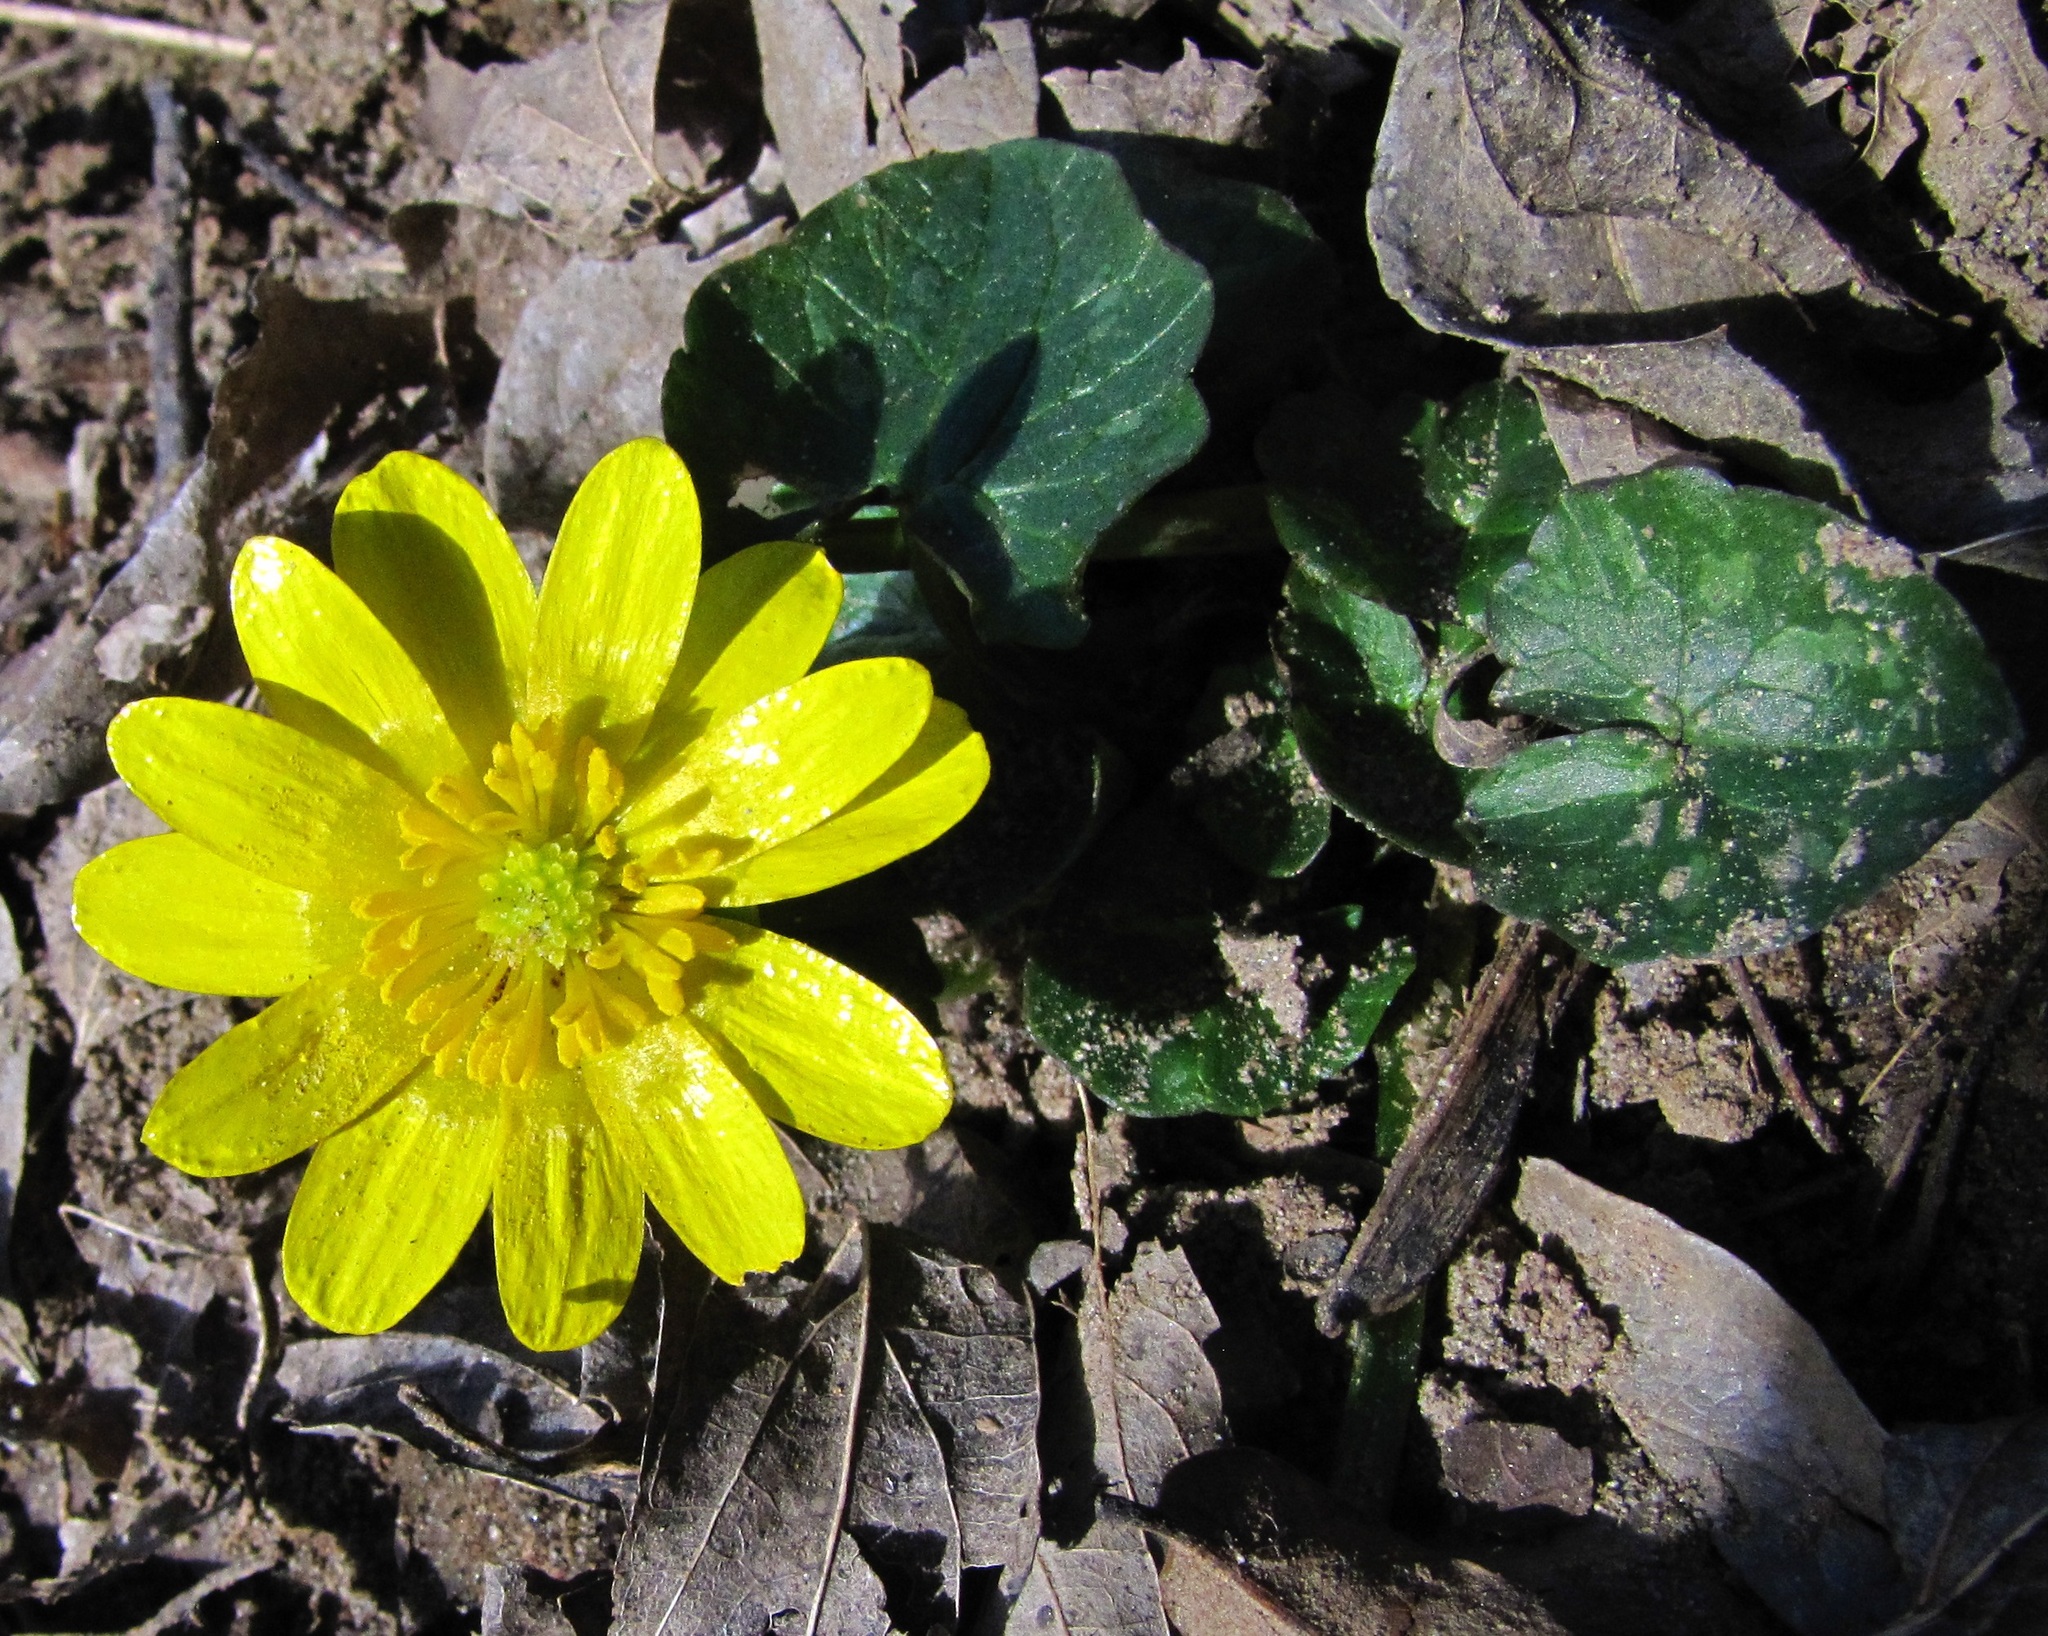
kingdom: Plantae
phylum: Tracheophyta
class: Magnoliopsida
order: Ranunculales
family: Ranunculaceae
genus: Ficaria
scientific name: Ficaria verna
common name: Lesser celandine
